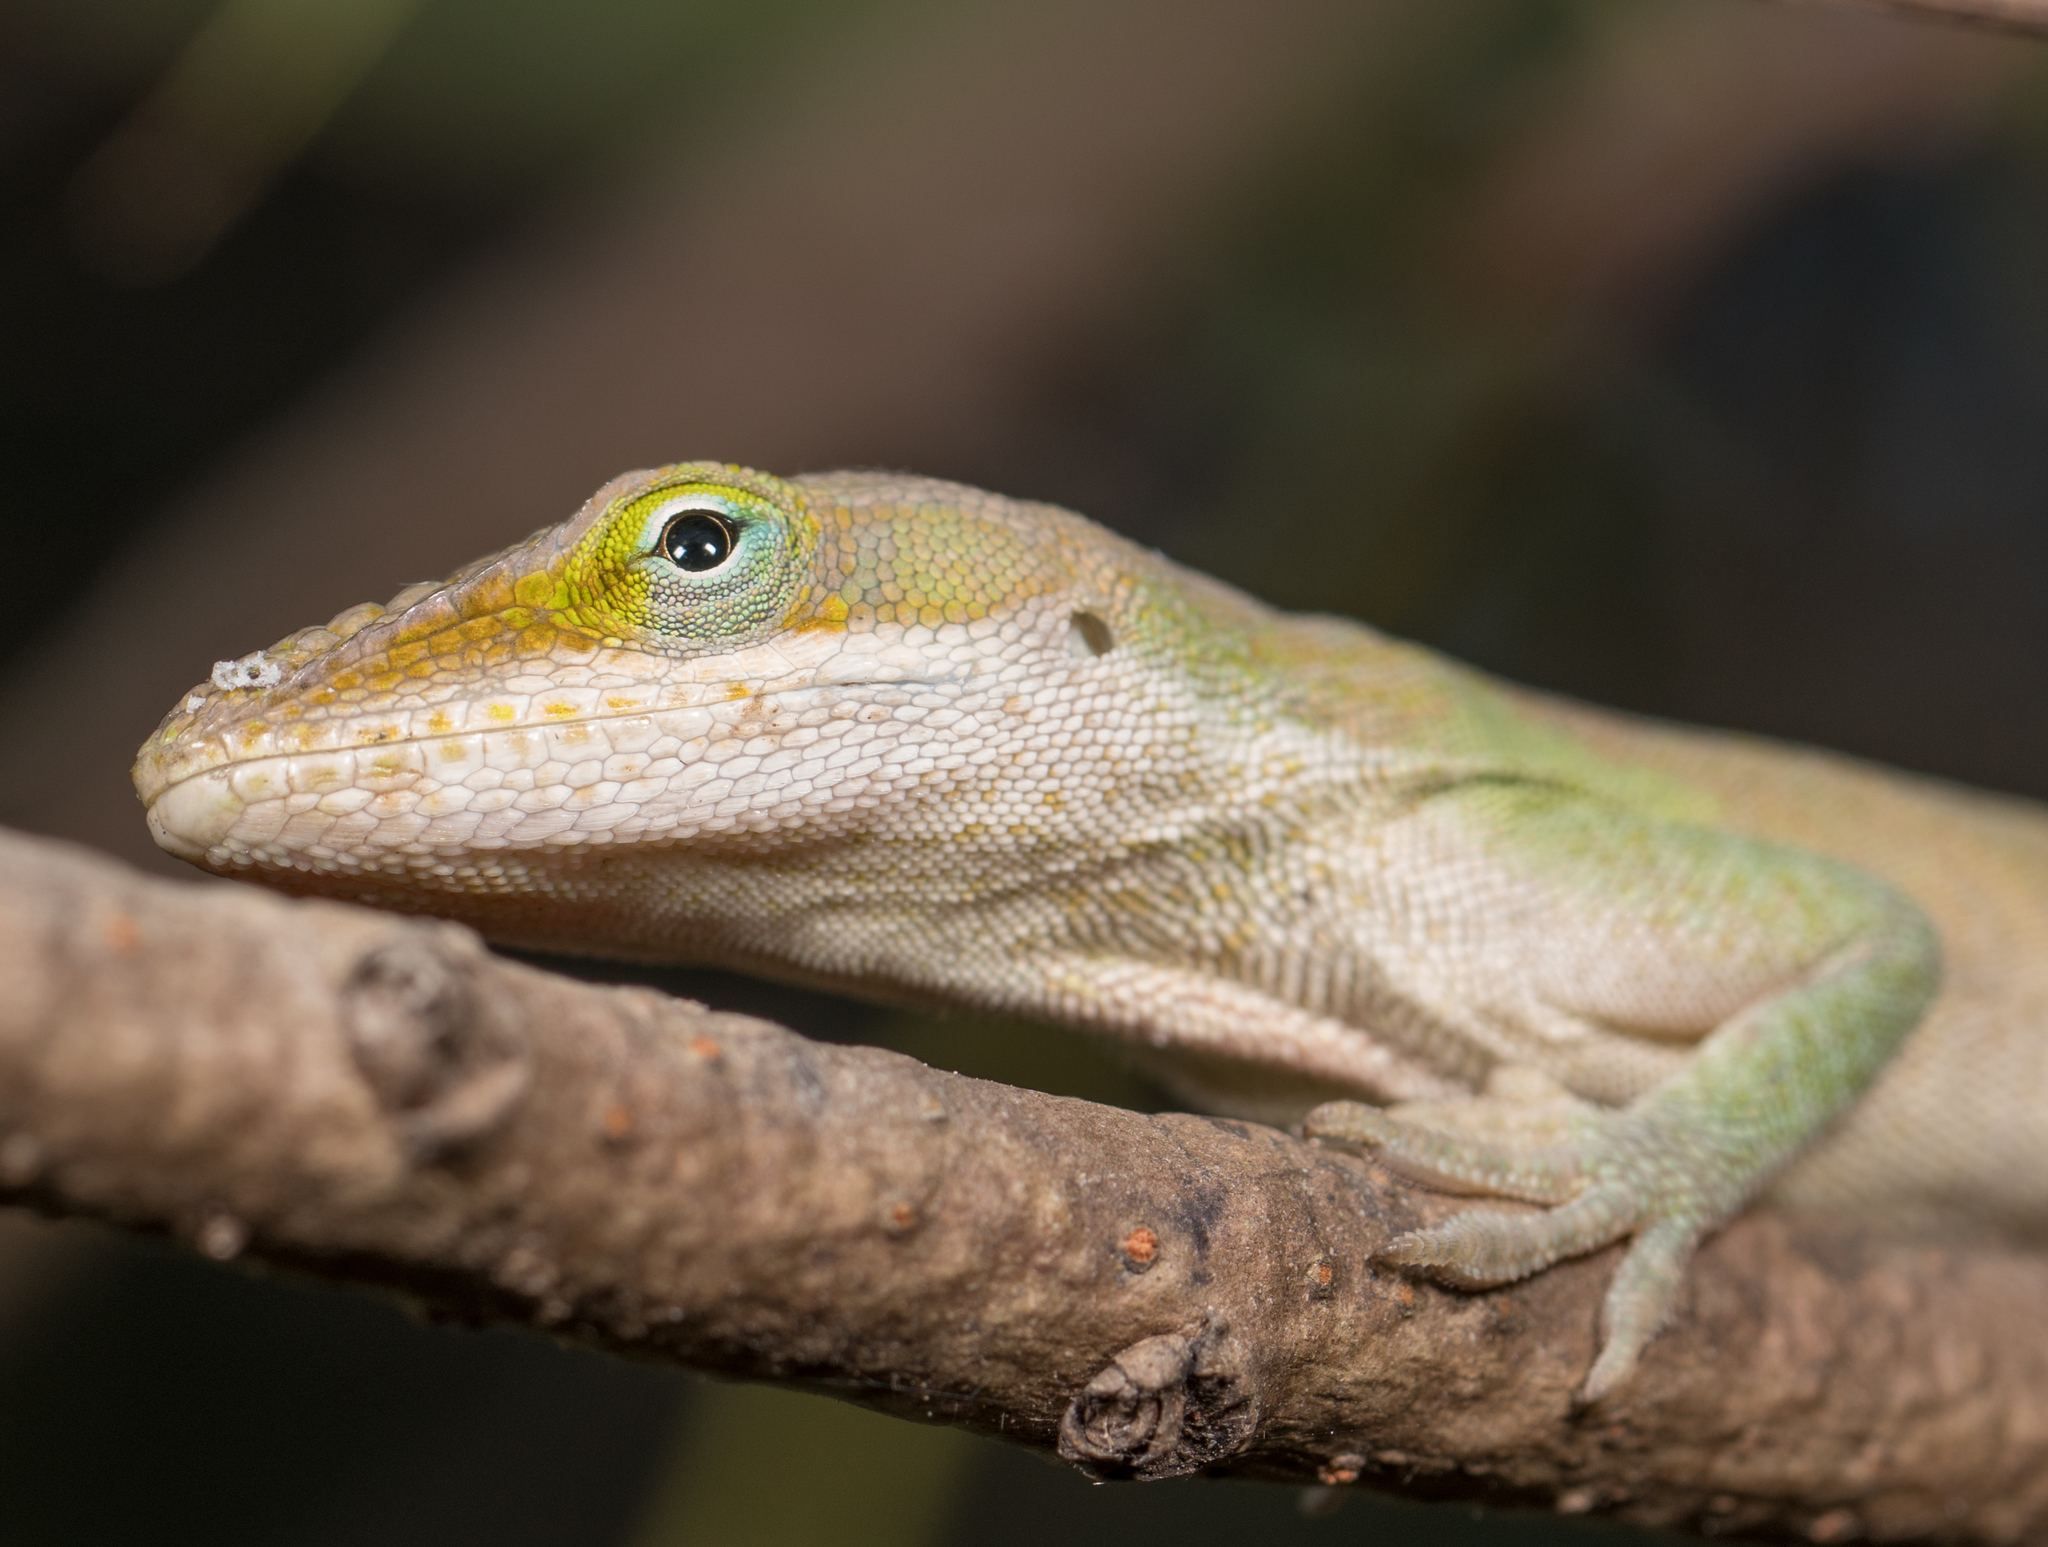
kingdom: Animalia
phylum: Chordata
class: Squamata
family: Dactyloidae
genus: Anolis
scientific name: Anolis carolinensis
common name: Green anole
